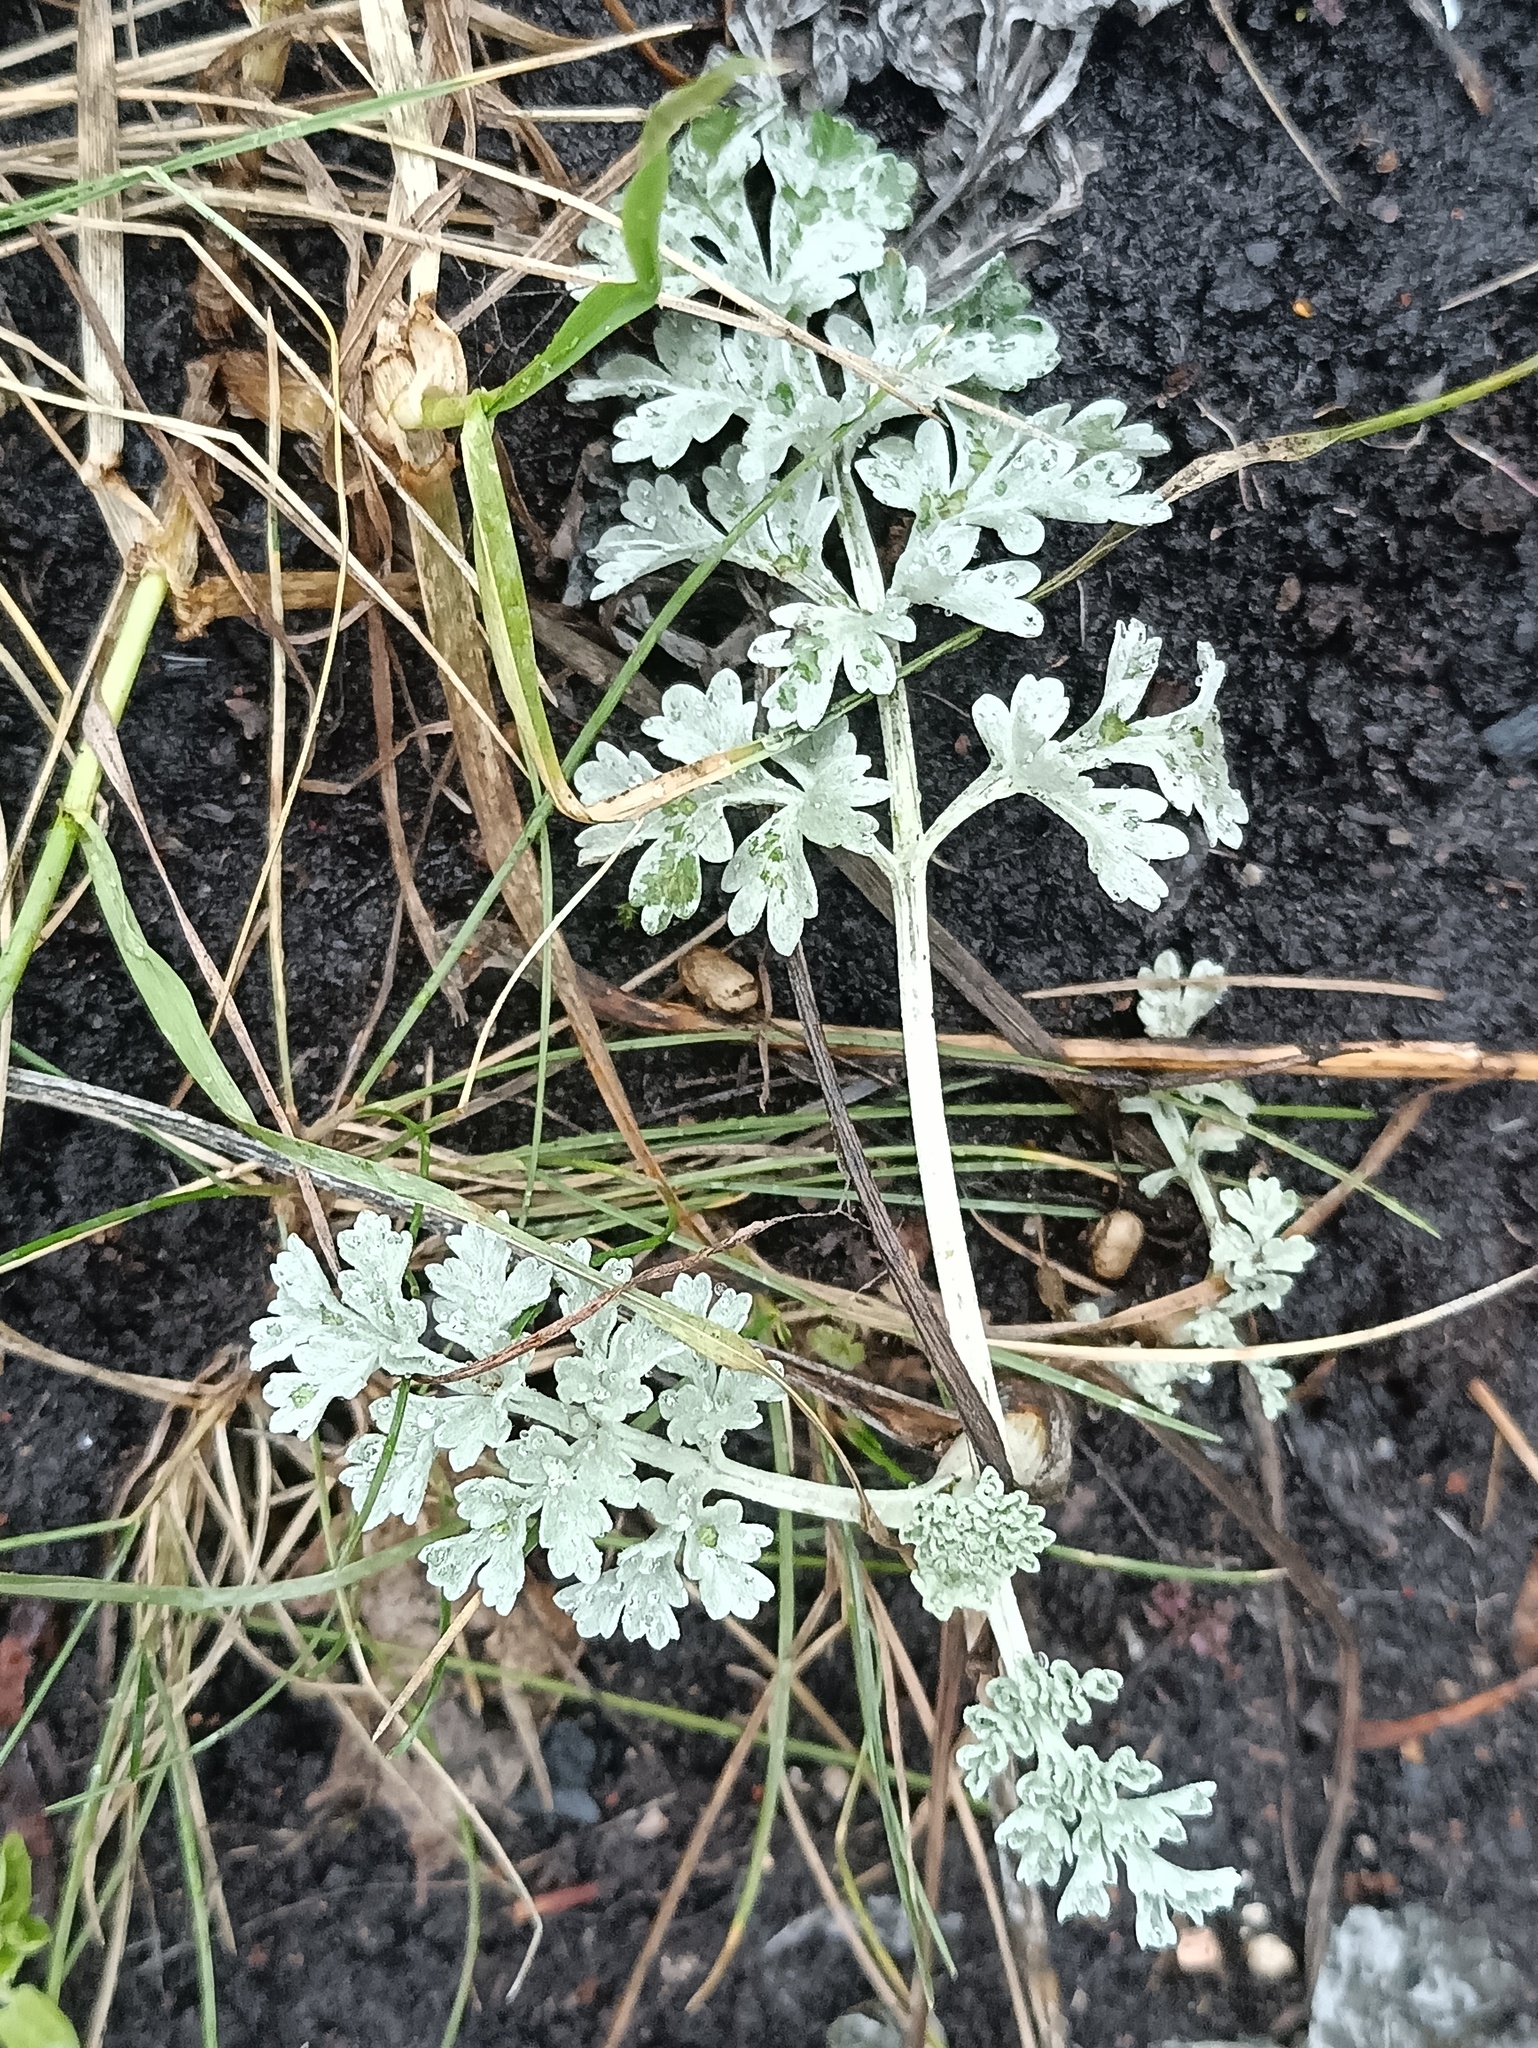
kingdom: Plantae
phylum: Tracheophyta
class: Magnoliopsida
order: Asterales
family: Asteraceae
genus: Artemisia
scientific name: Artemisia absinthium
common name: Wormwood
